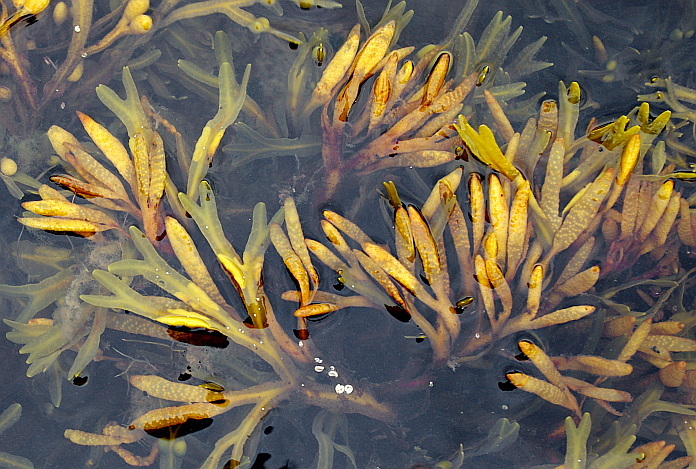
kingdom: Chromista
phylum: Ochrophyta
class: Phaeophyceae
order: Fucales
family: Fucaceae
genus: Fucus
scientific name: Fucus distichus
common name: Rockweed
